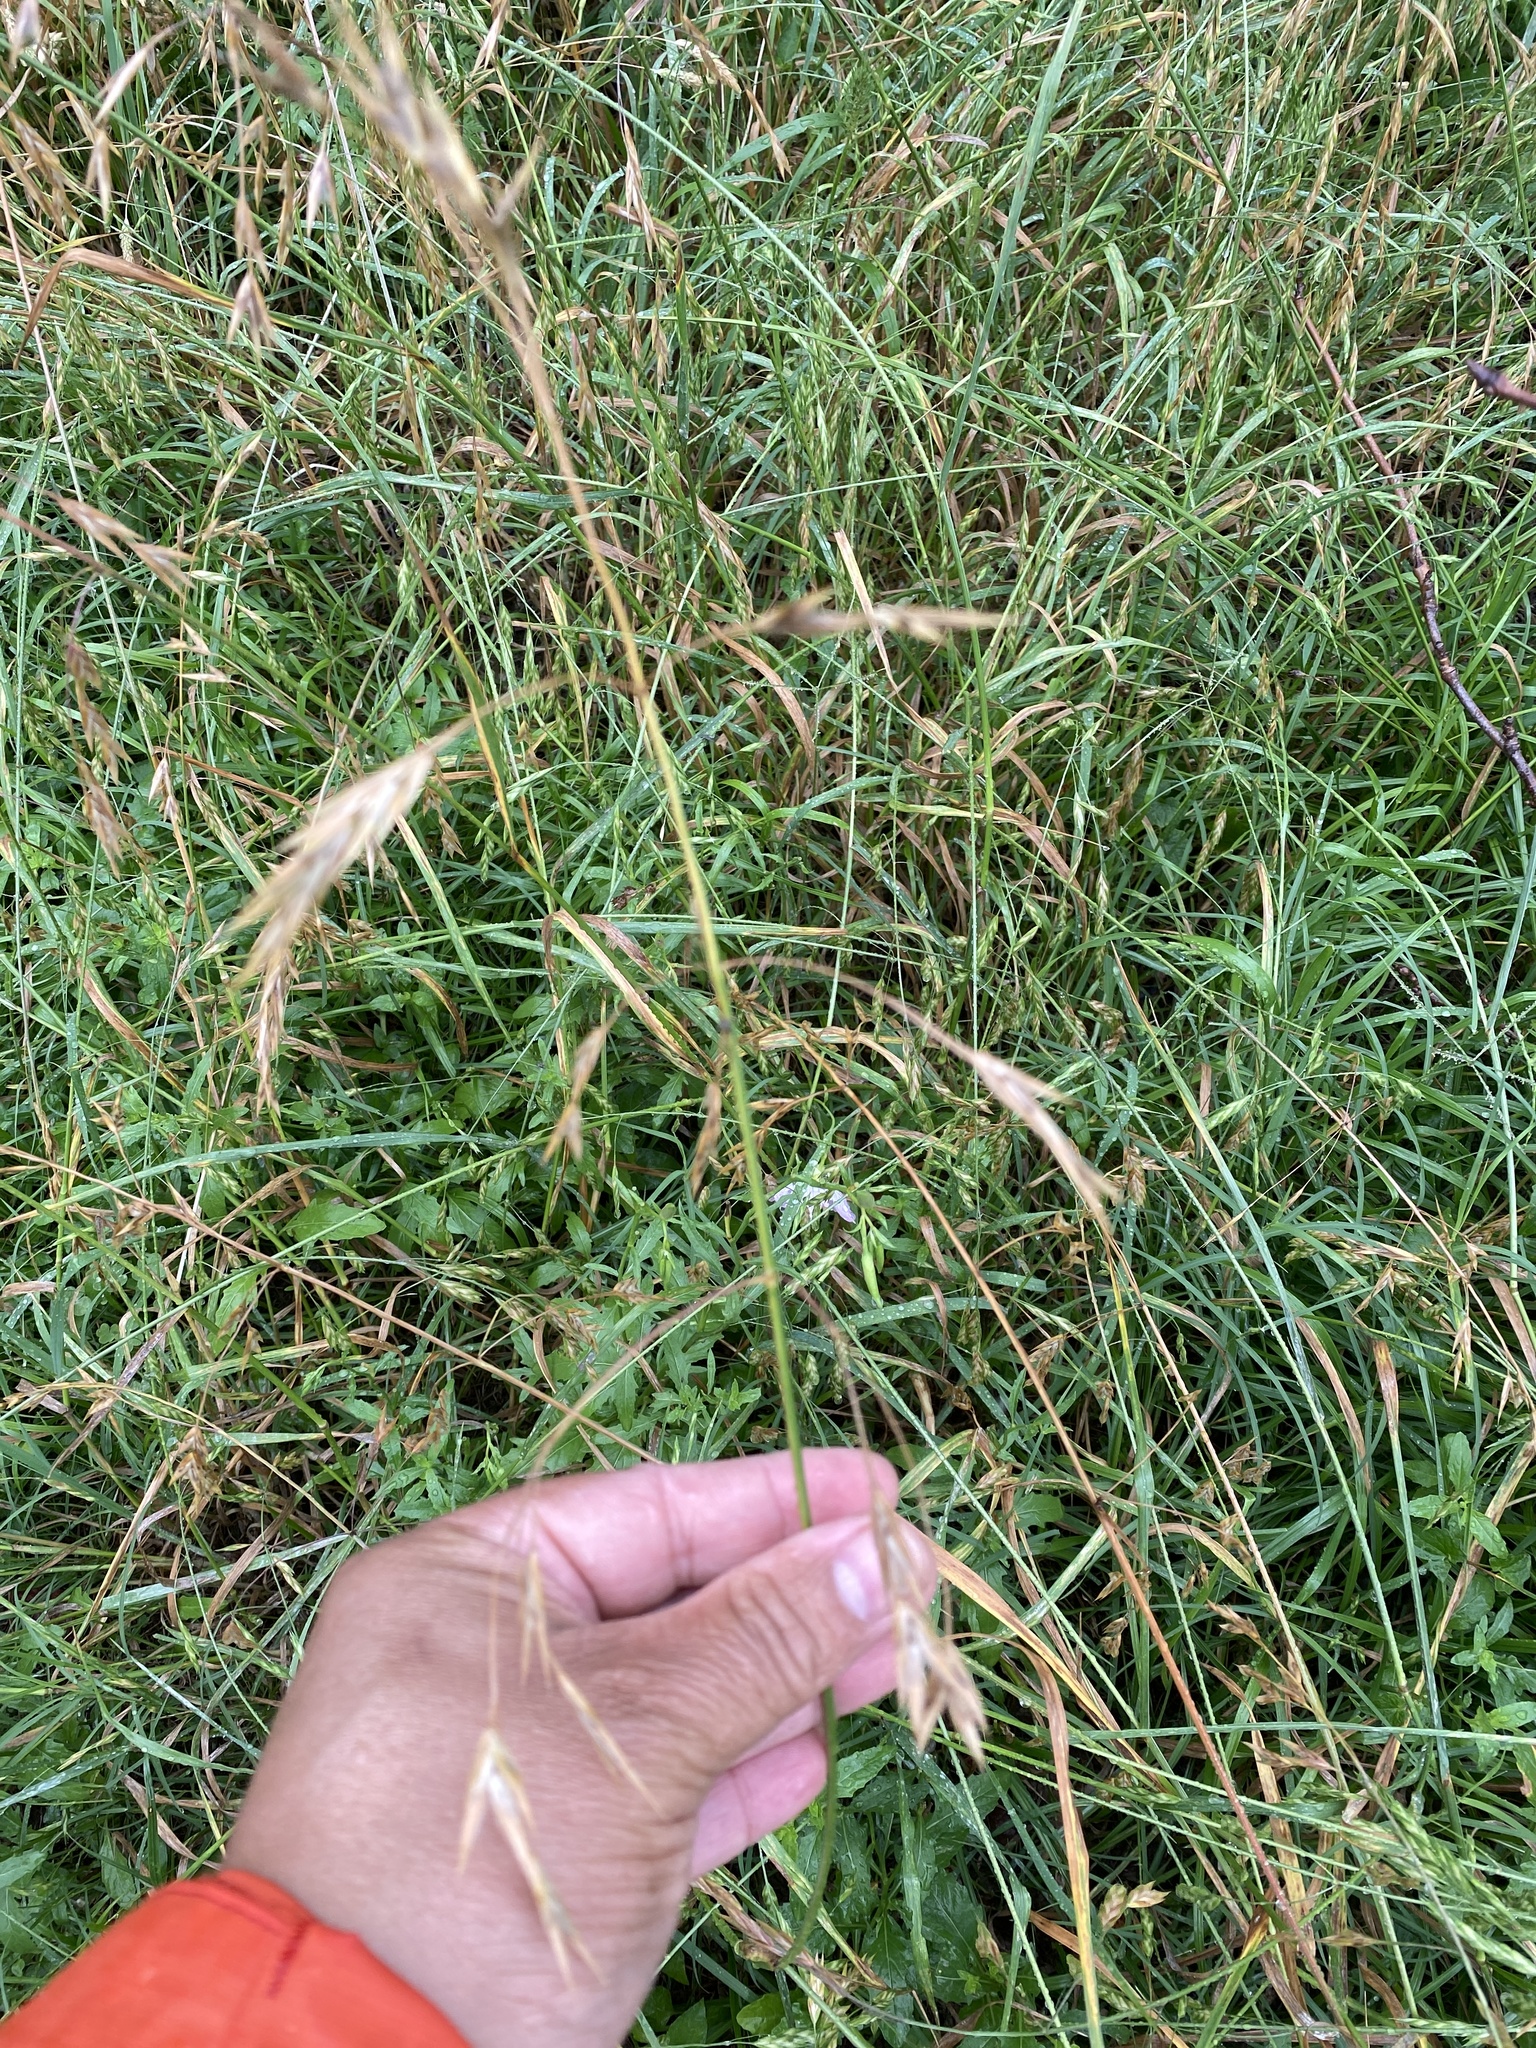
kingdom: Plantae
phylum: Tracheophyta
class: Liliopsida
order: Poales
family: Poaceae
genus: Bromus
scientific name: Bromus catharticus
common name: Rescuegrass
